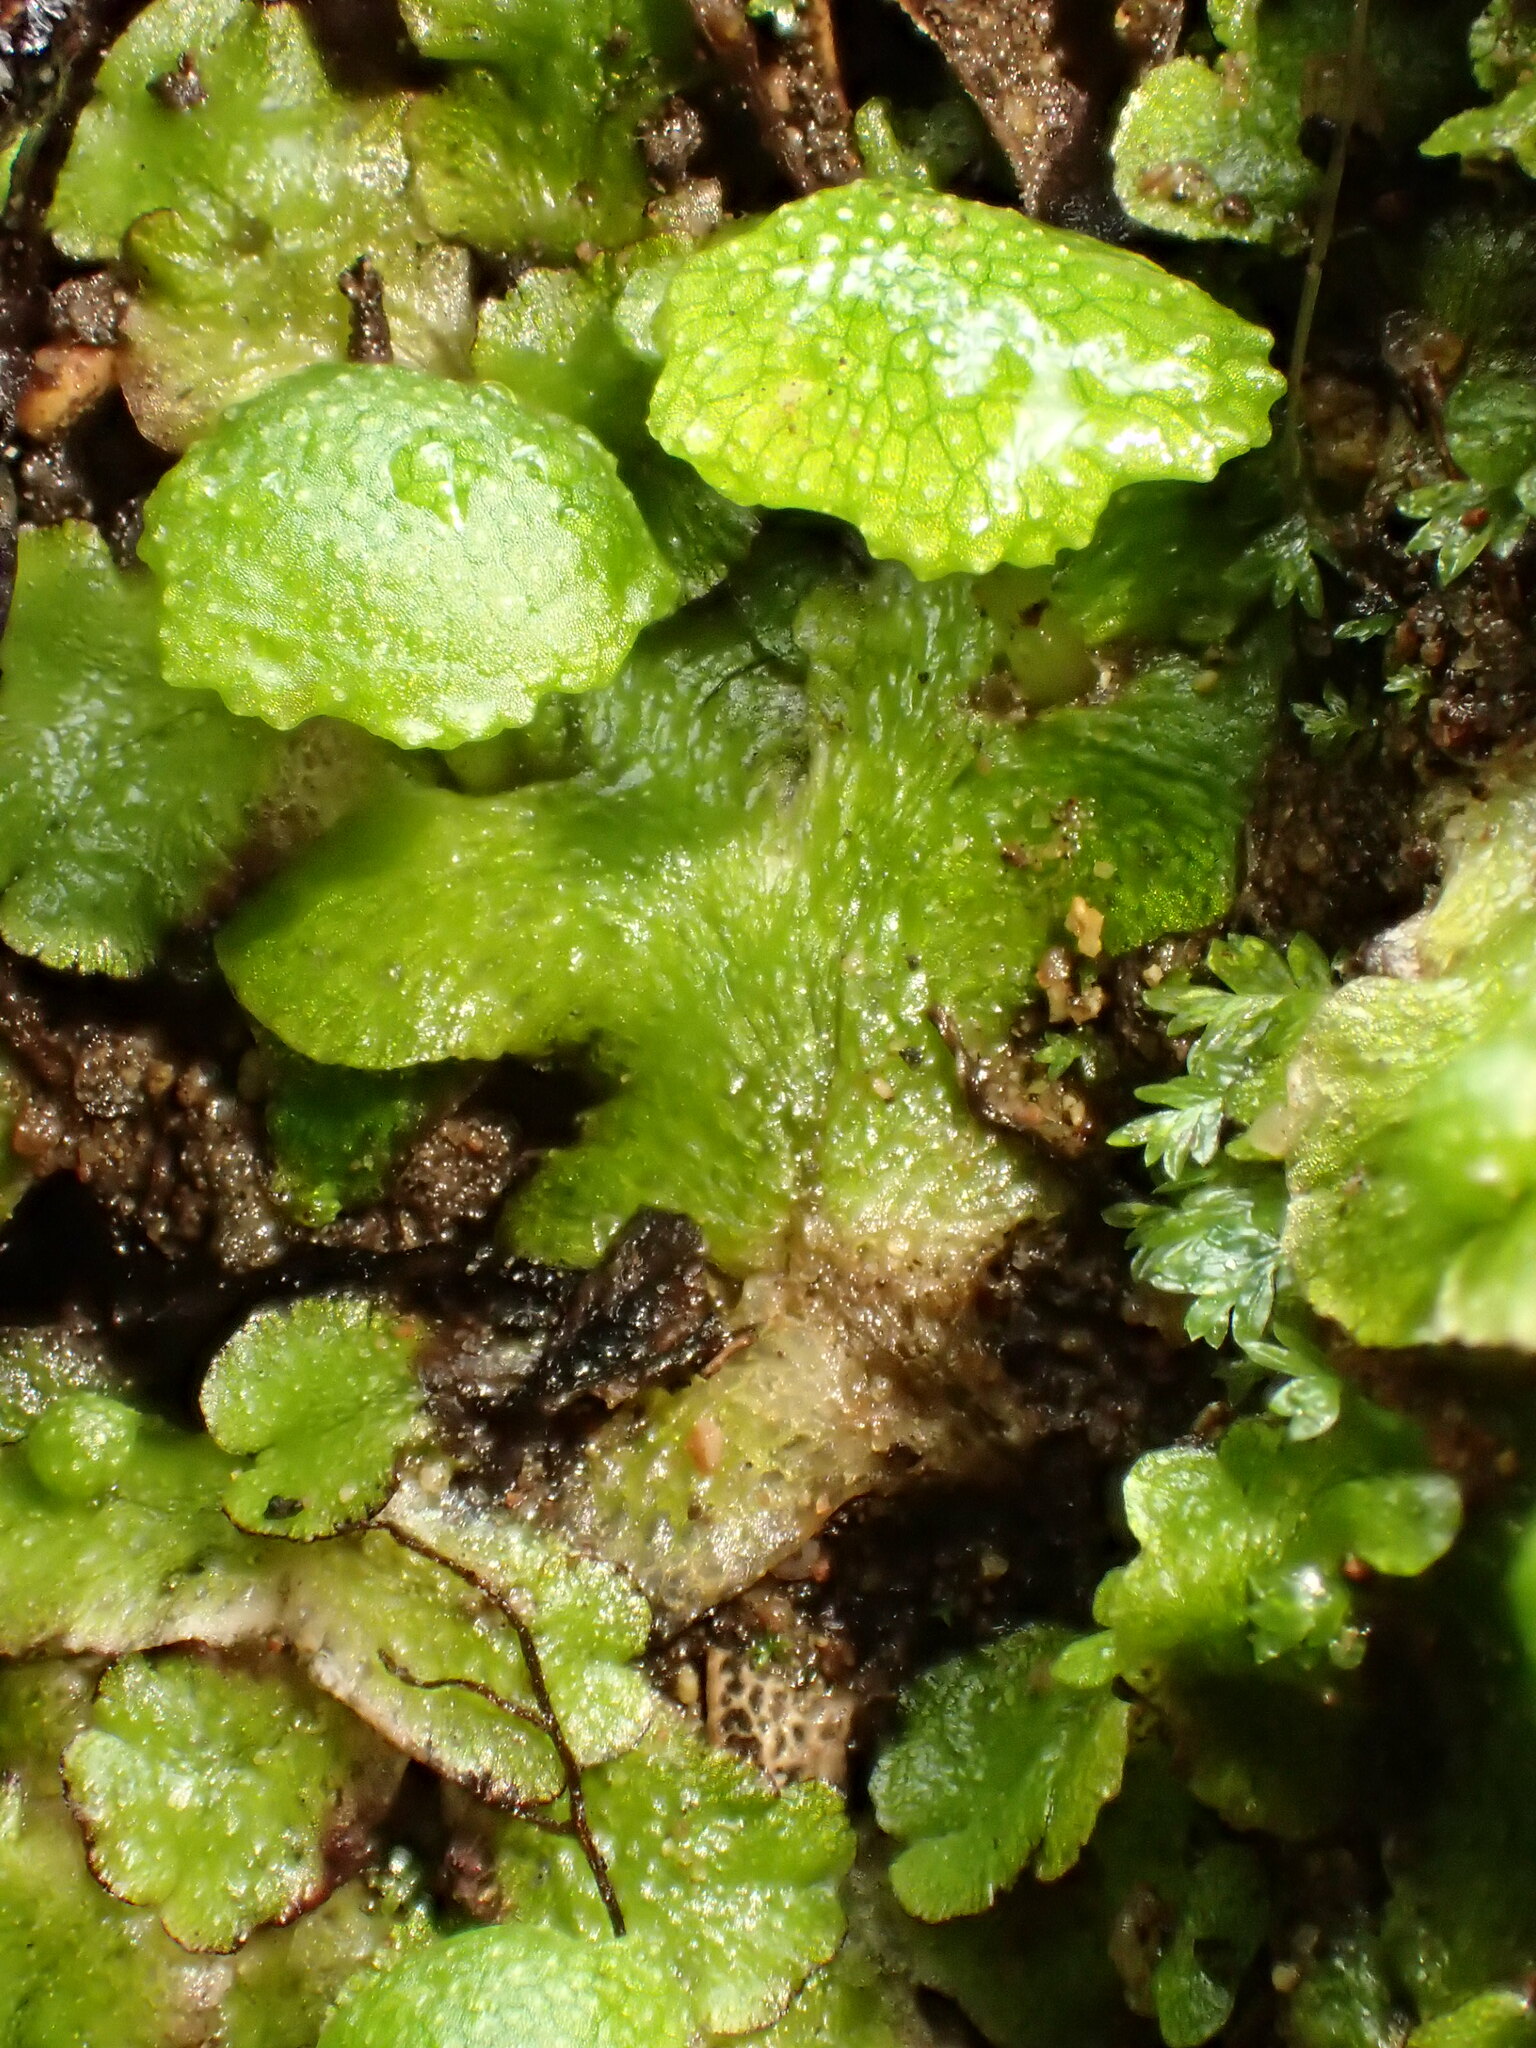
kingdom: Plantae
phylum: Marchantiophyta
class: Marchantiopsida
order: Marchantiales
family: Aytoniaceae
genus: Cryptomitrium
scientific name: Cryptomitrium tenerum
